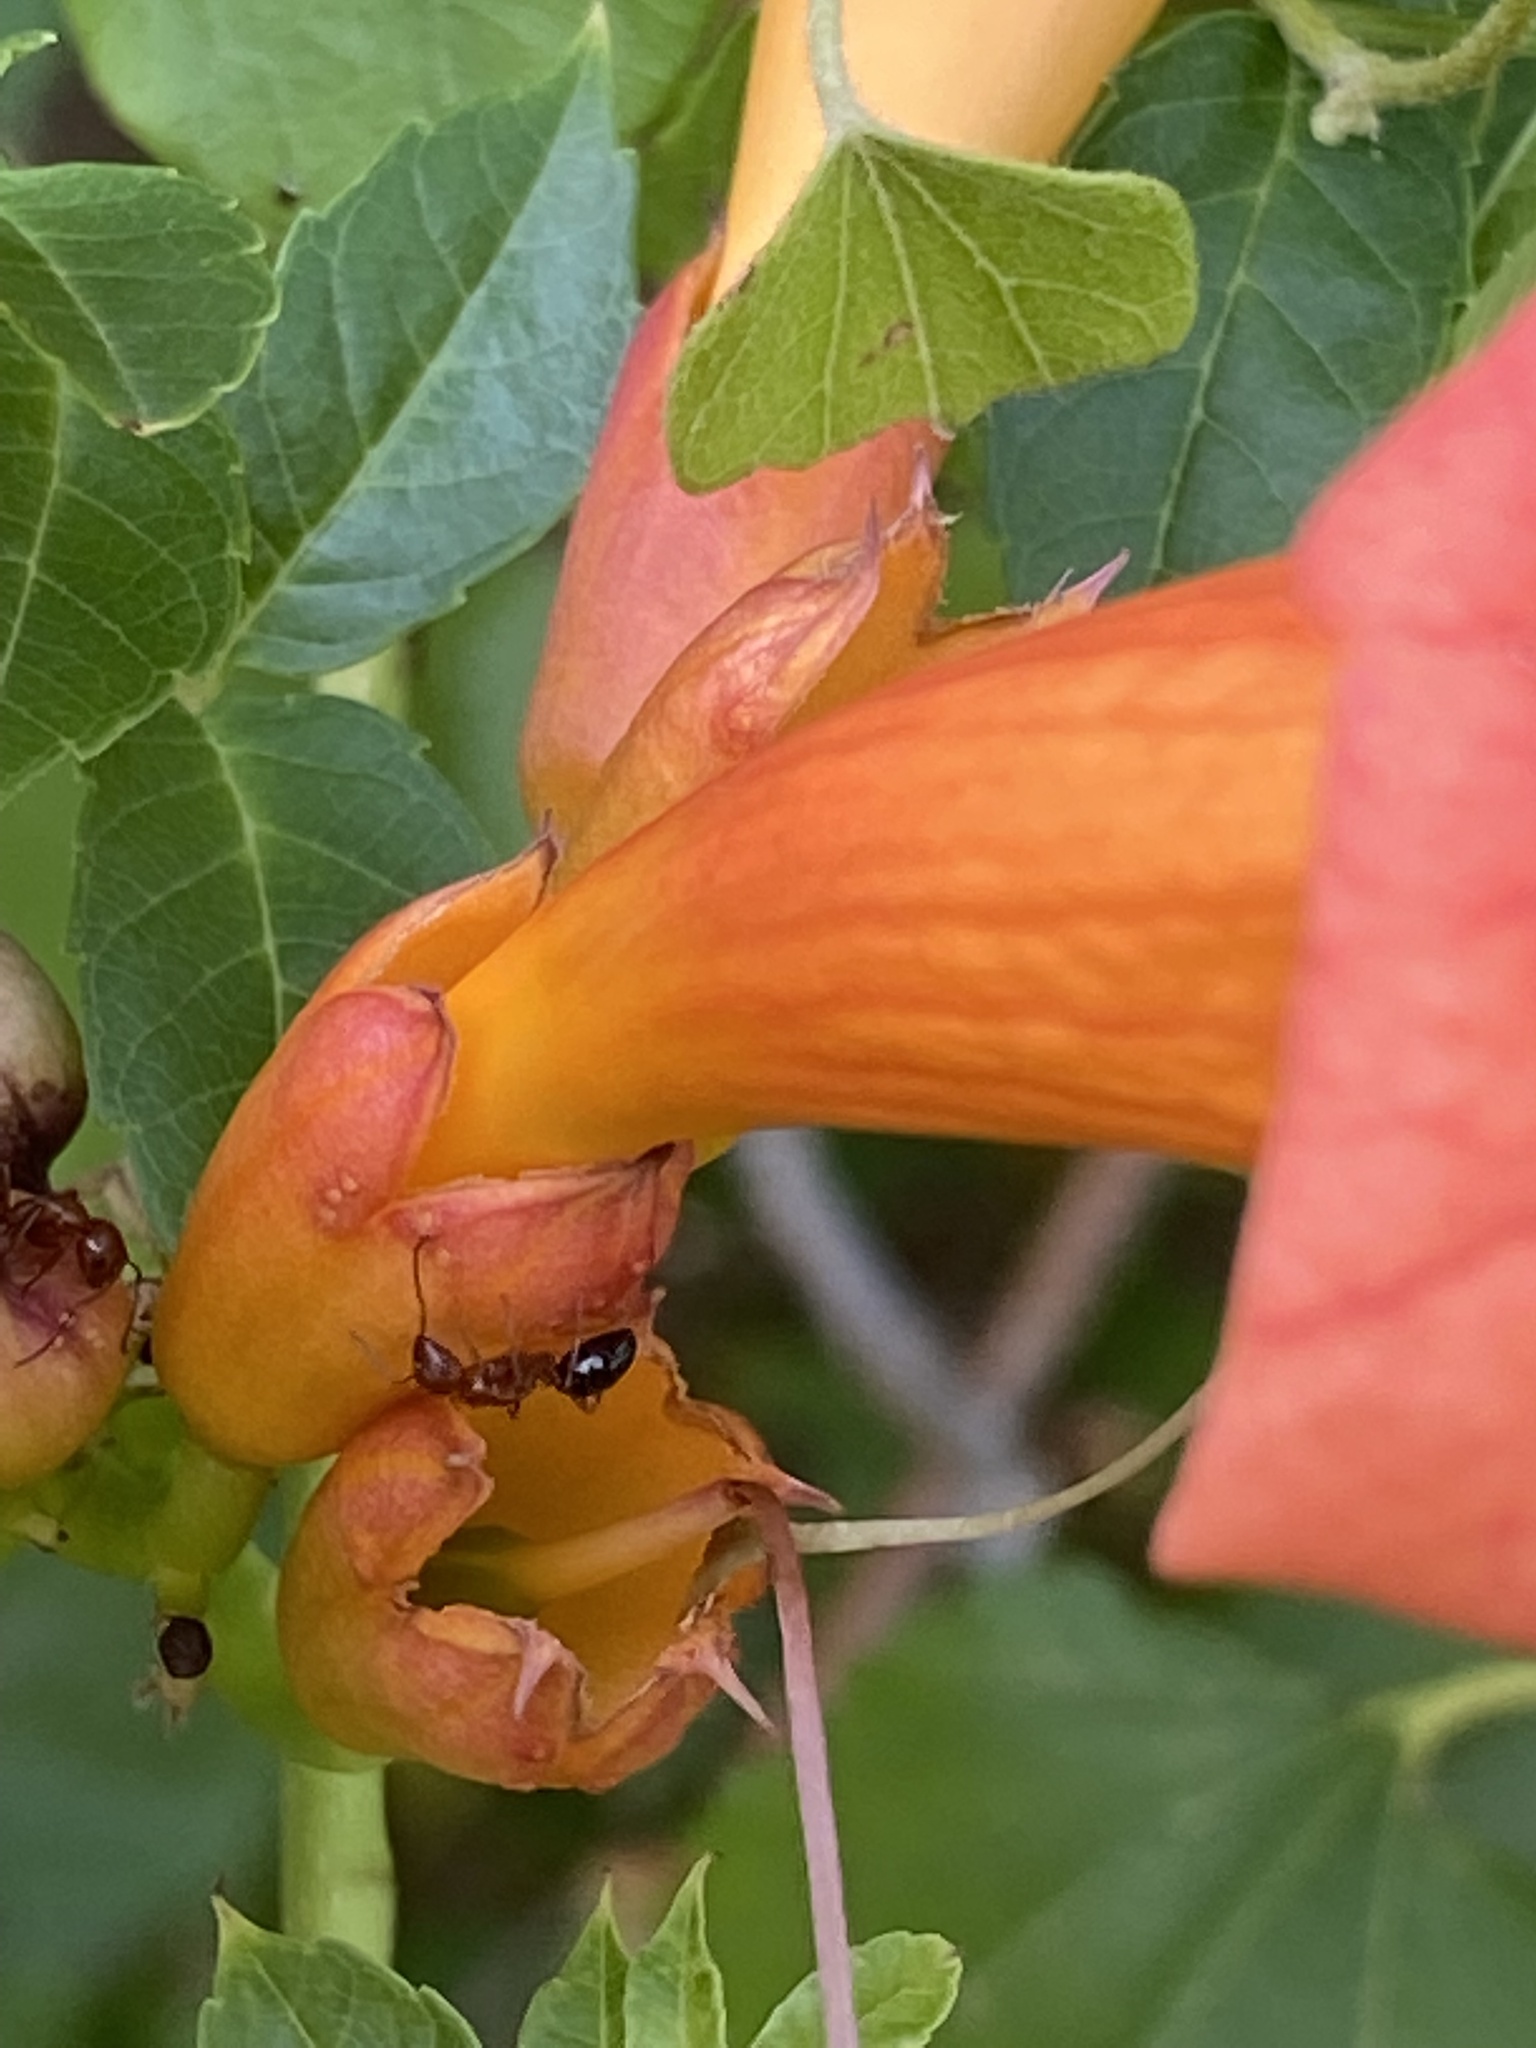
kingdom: Plantae
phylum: Tracheophyta
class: Magnoliopsida
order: Lamiales
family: Bignoniaceae
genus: Campsis
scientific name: Campsis radicans
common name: Trumpet-creeper
